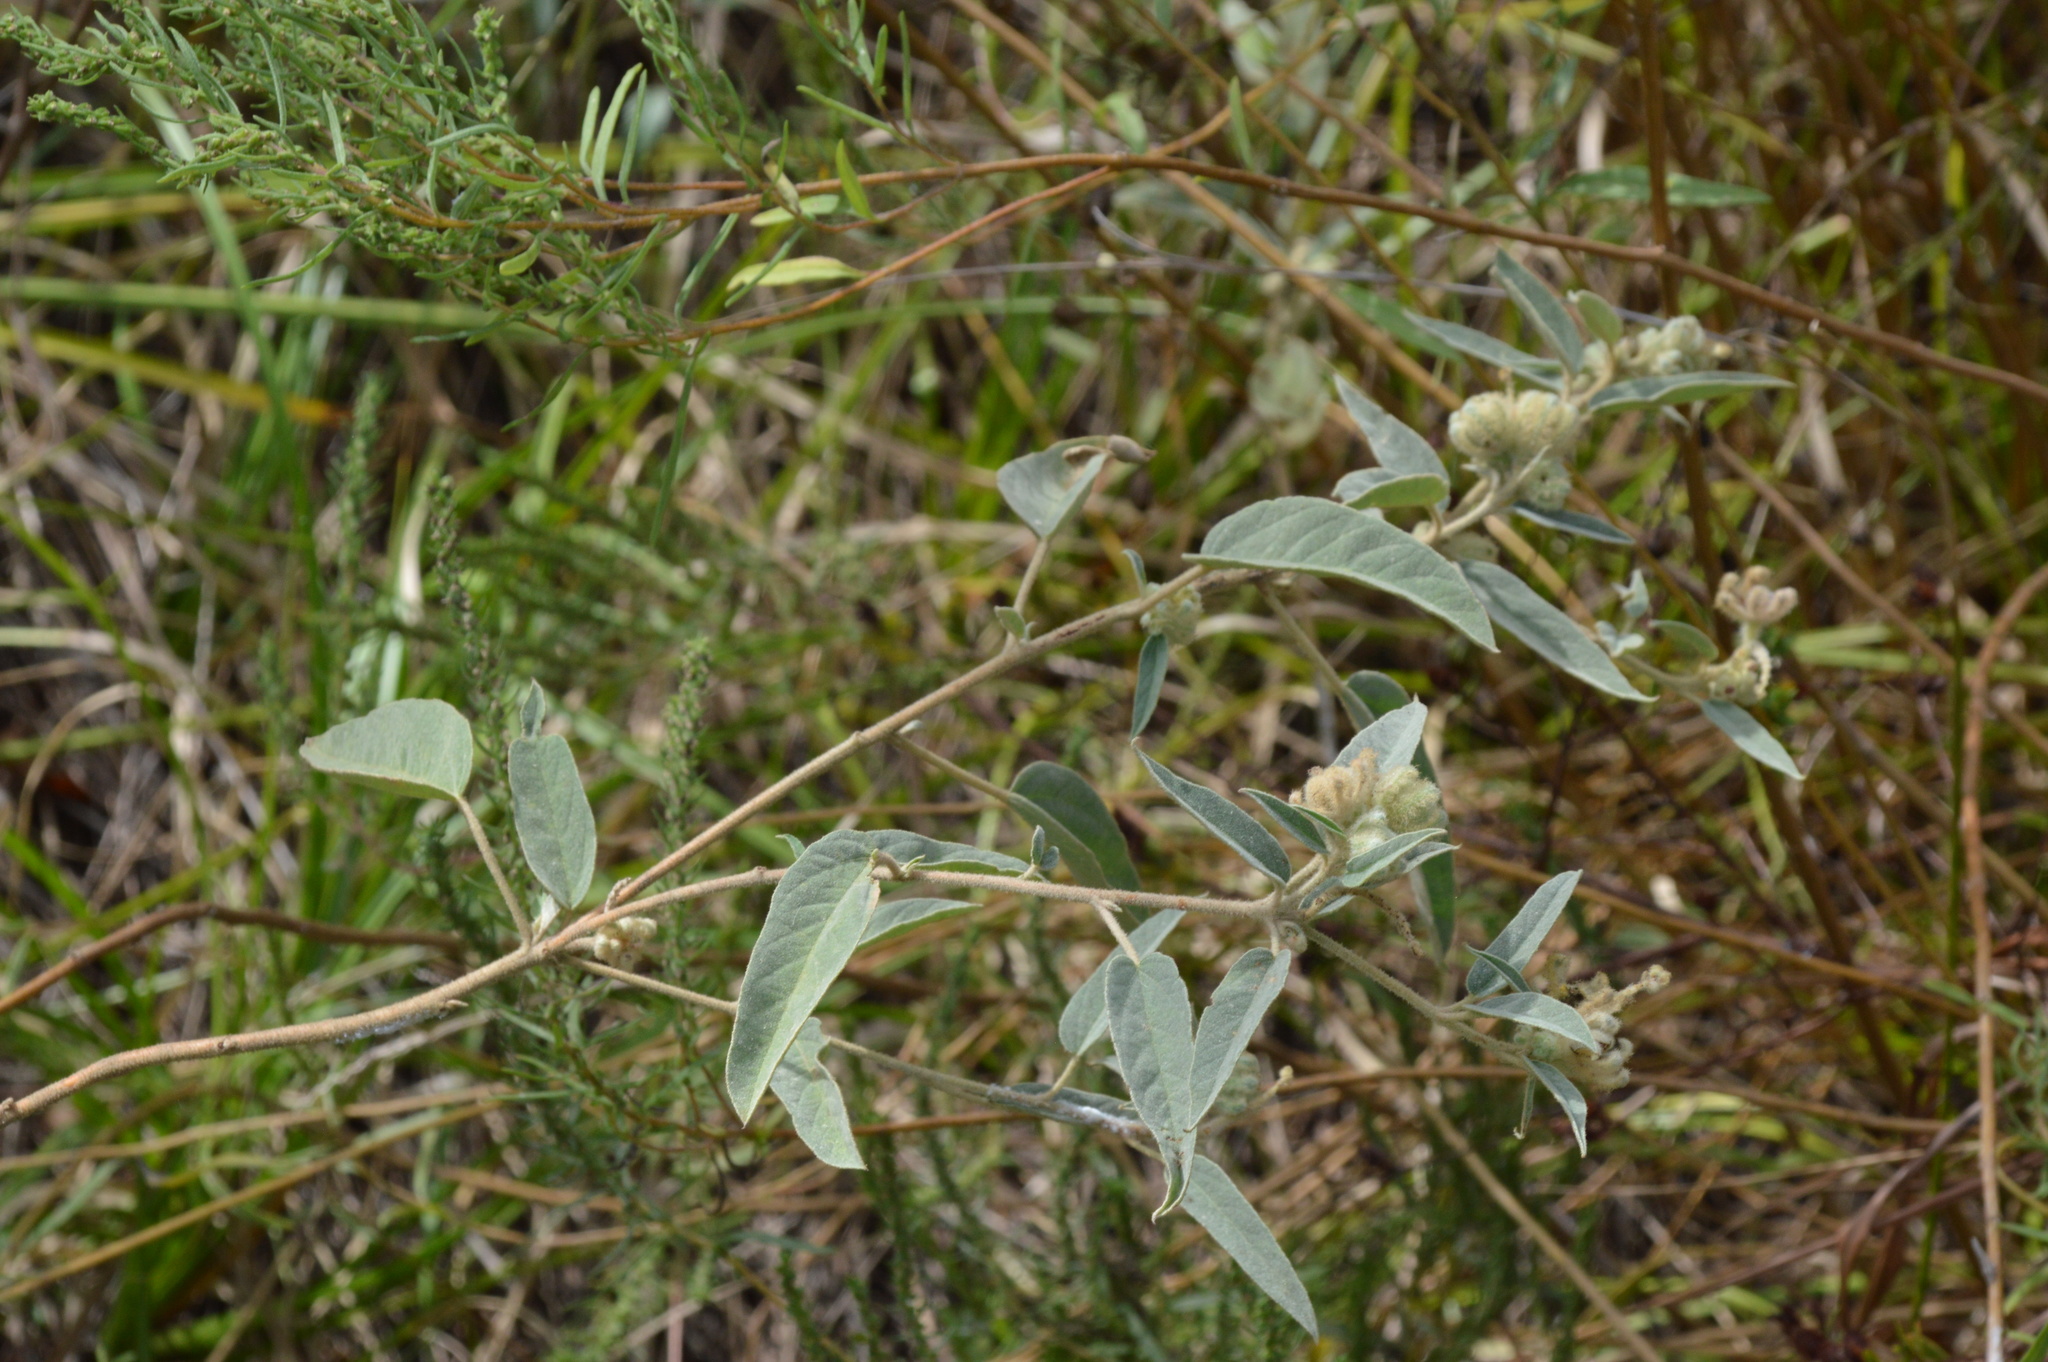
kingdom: Plantae
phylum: Tracheophyta
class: Magnoliopsida
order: Malpighiales
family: Euphorbiaceae
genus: Croton
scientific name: Croton lindheimeri
